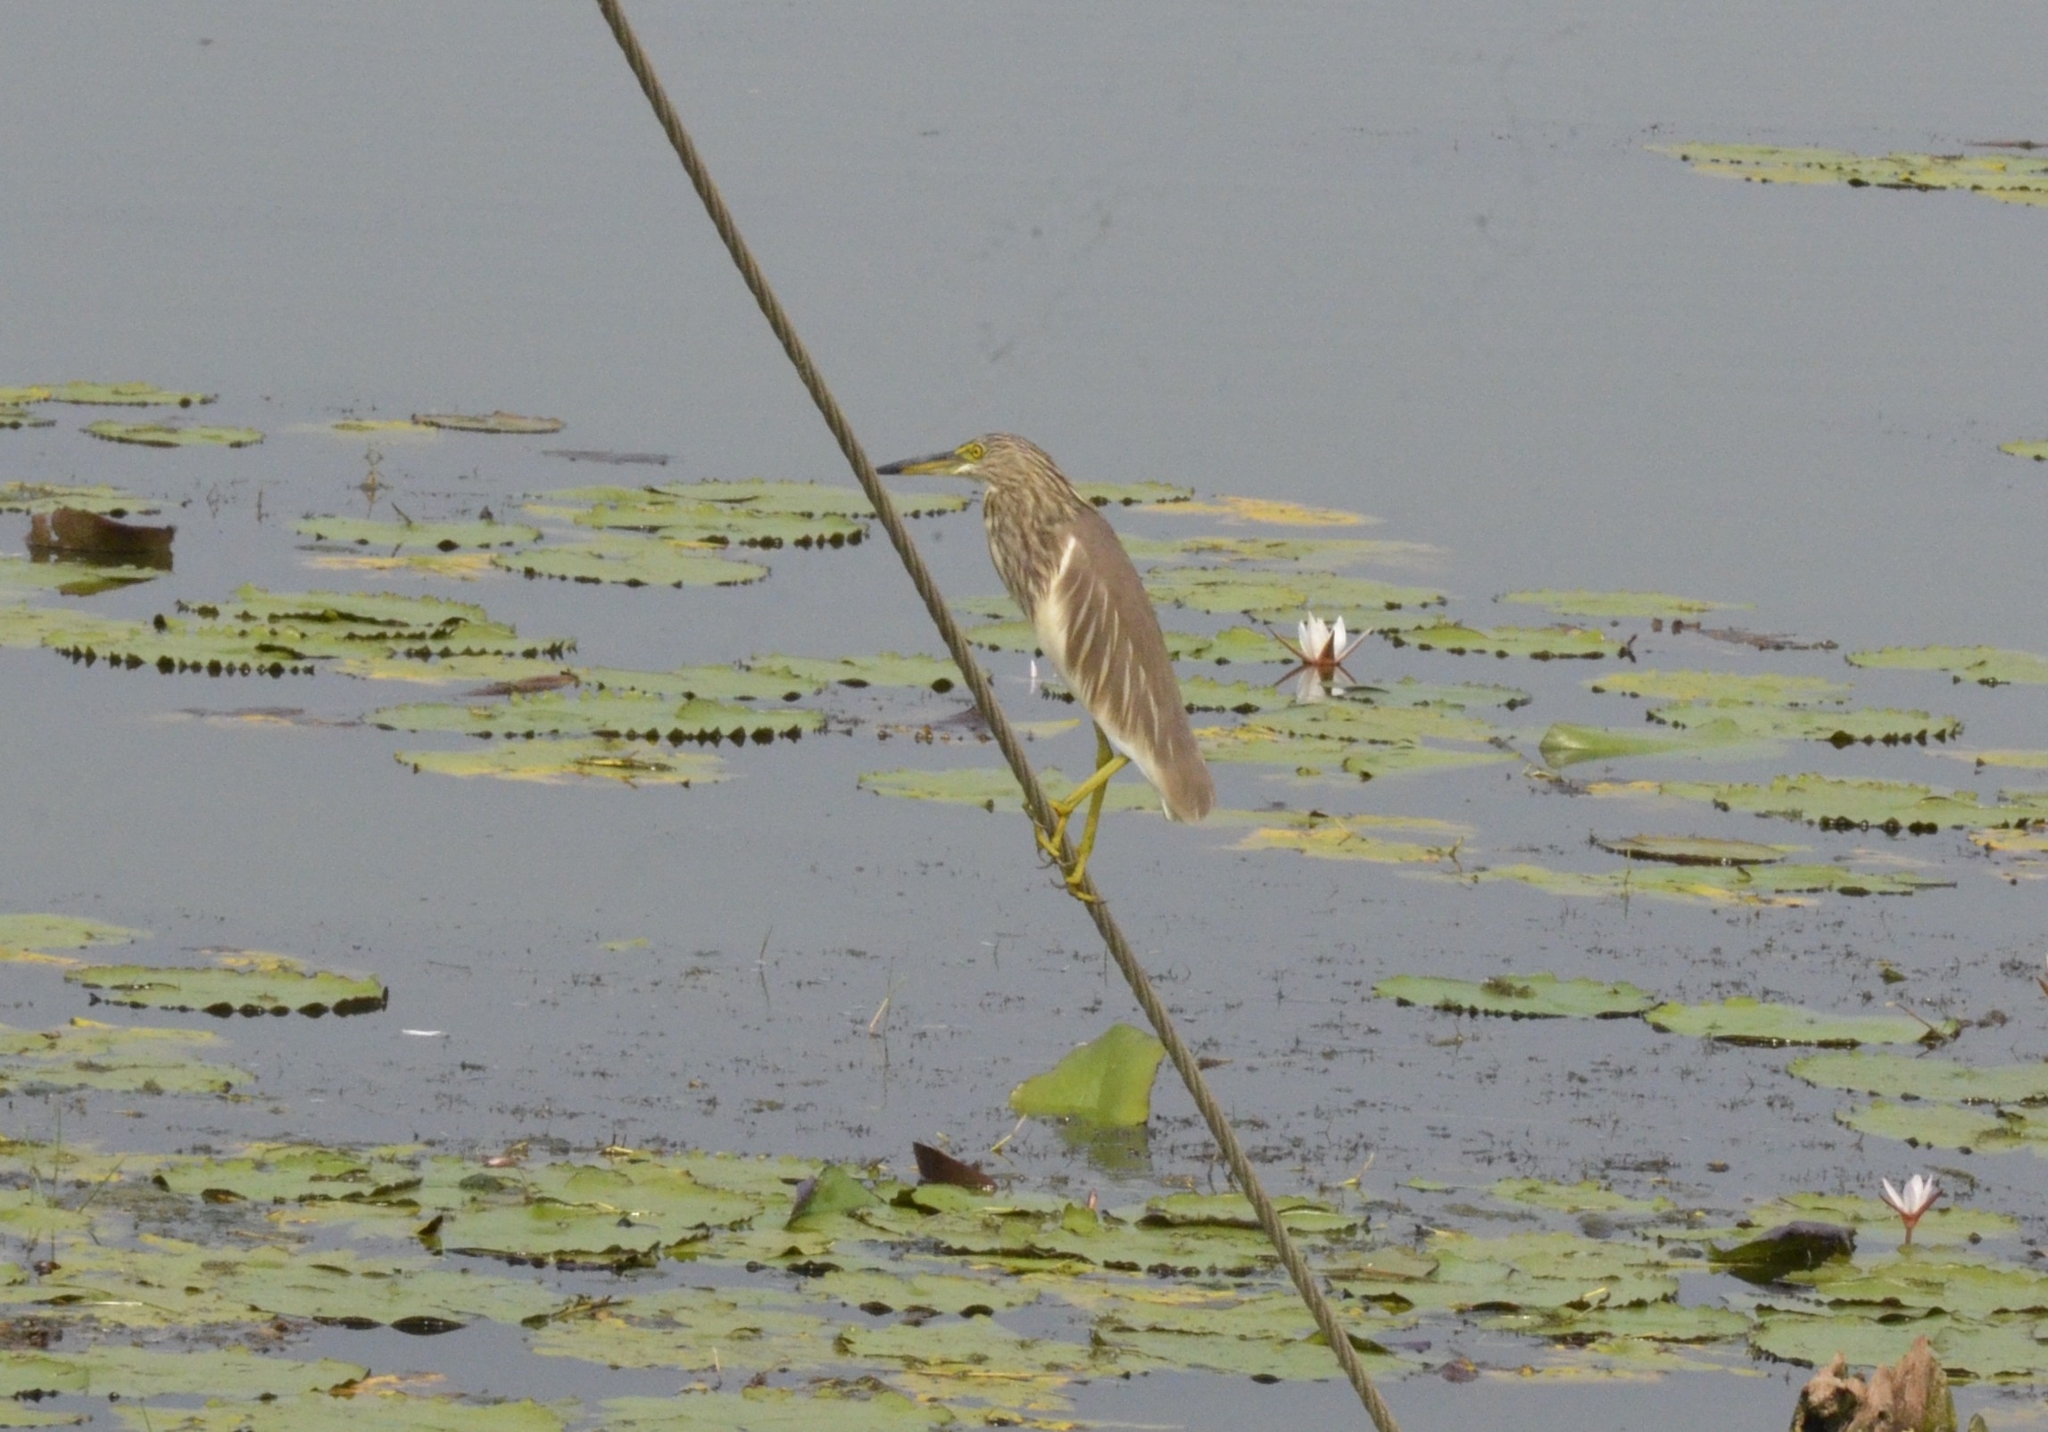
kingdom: Animalia
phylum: Chordata
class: Aves
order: Pelecaniformes
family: Ardeidae
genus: Ardeola
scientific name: Ardeola grayii
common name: Indian pond heron
